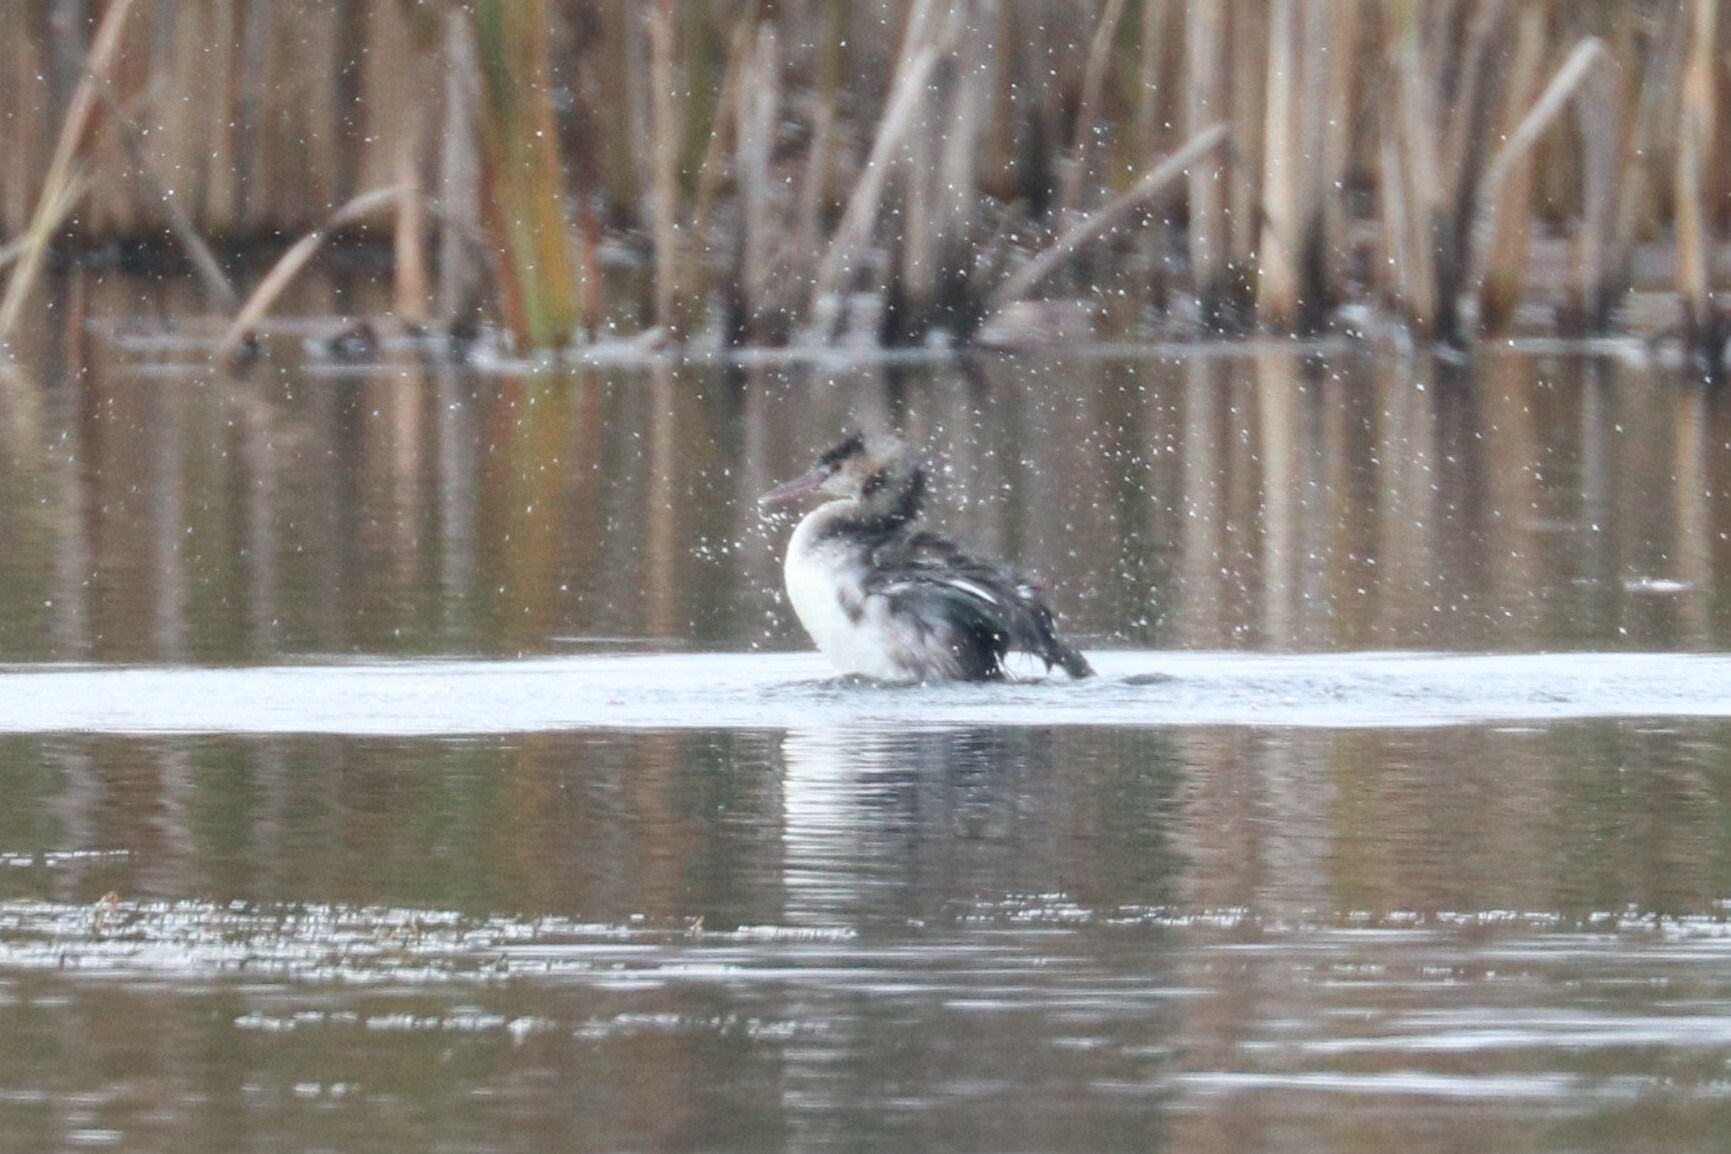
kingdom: Animalia
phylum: Chordata
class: Aves
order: Podicipediformes
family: Podicipedidae
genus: Podiceps
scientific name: Podiceps cristatus
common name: Great crested grebe
